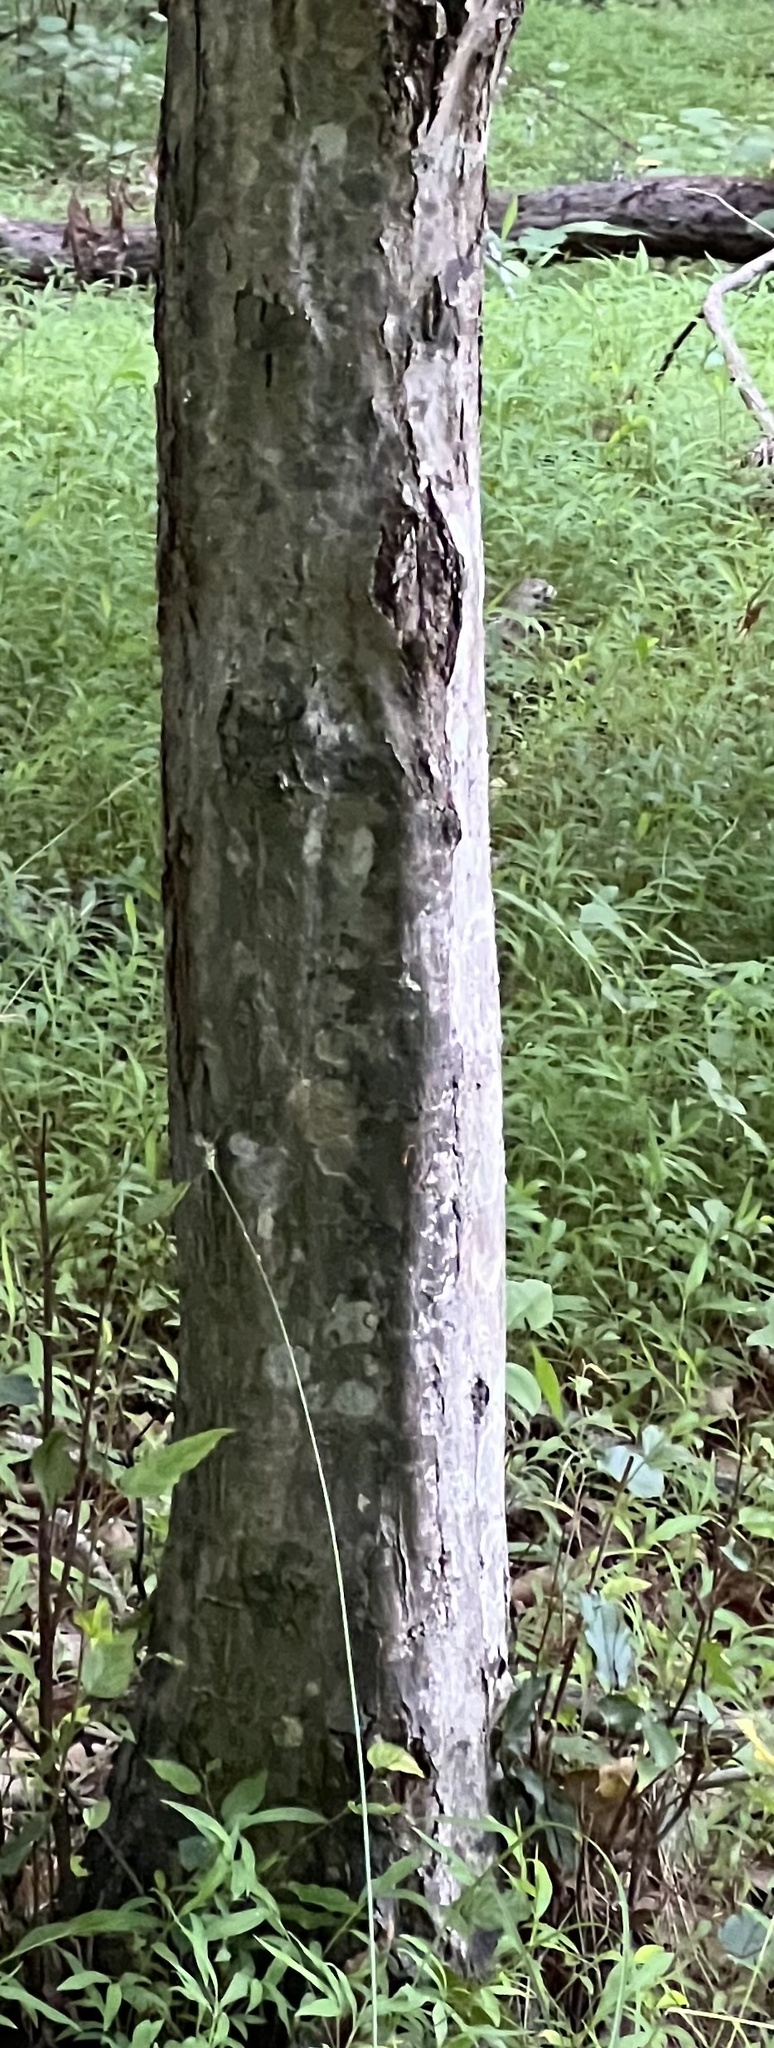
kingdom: Plantae
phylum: Tracheophyta
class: Magnoliopsida
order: Fagales
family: Betulaceae
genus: Carpinus
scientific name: Carpinus caroliniana
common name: American hornbeam
